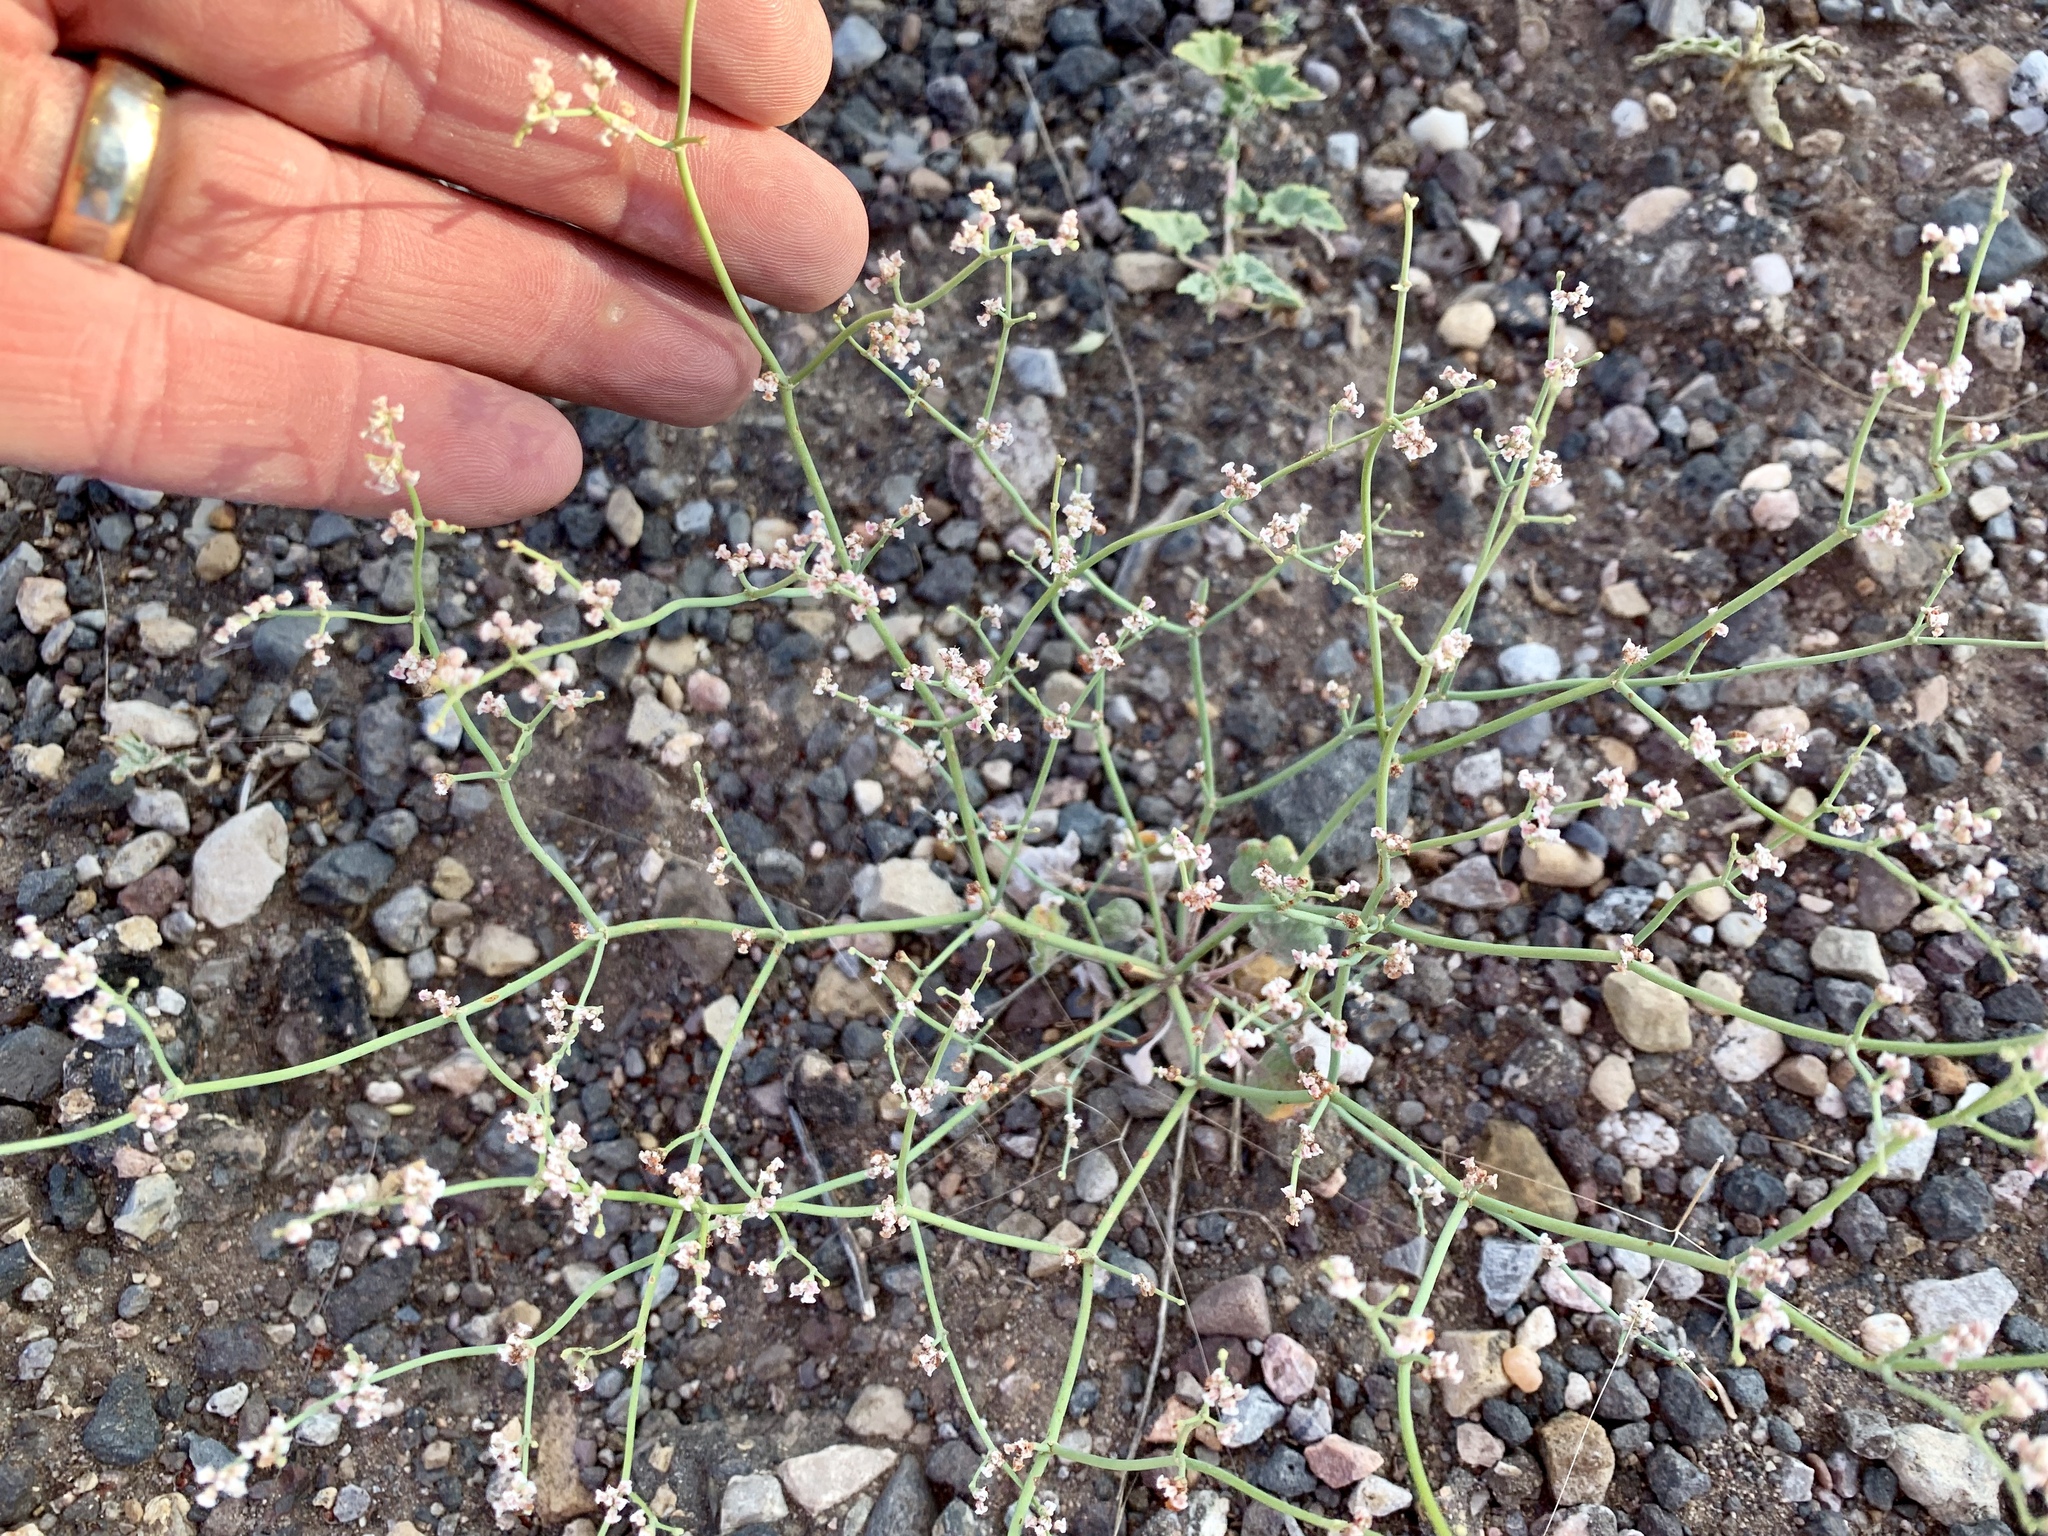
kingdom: Plantae
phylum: Tracheophyta
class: Magnoliopsida
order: Caryophyllales
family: Polygonaceae
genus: Eriogonum
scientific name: Eriogonum rotundifolium
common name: Round-leaf wild buckwheat
